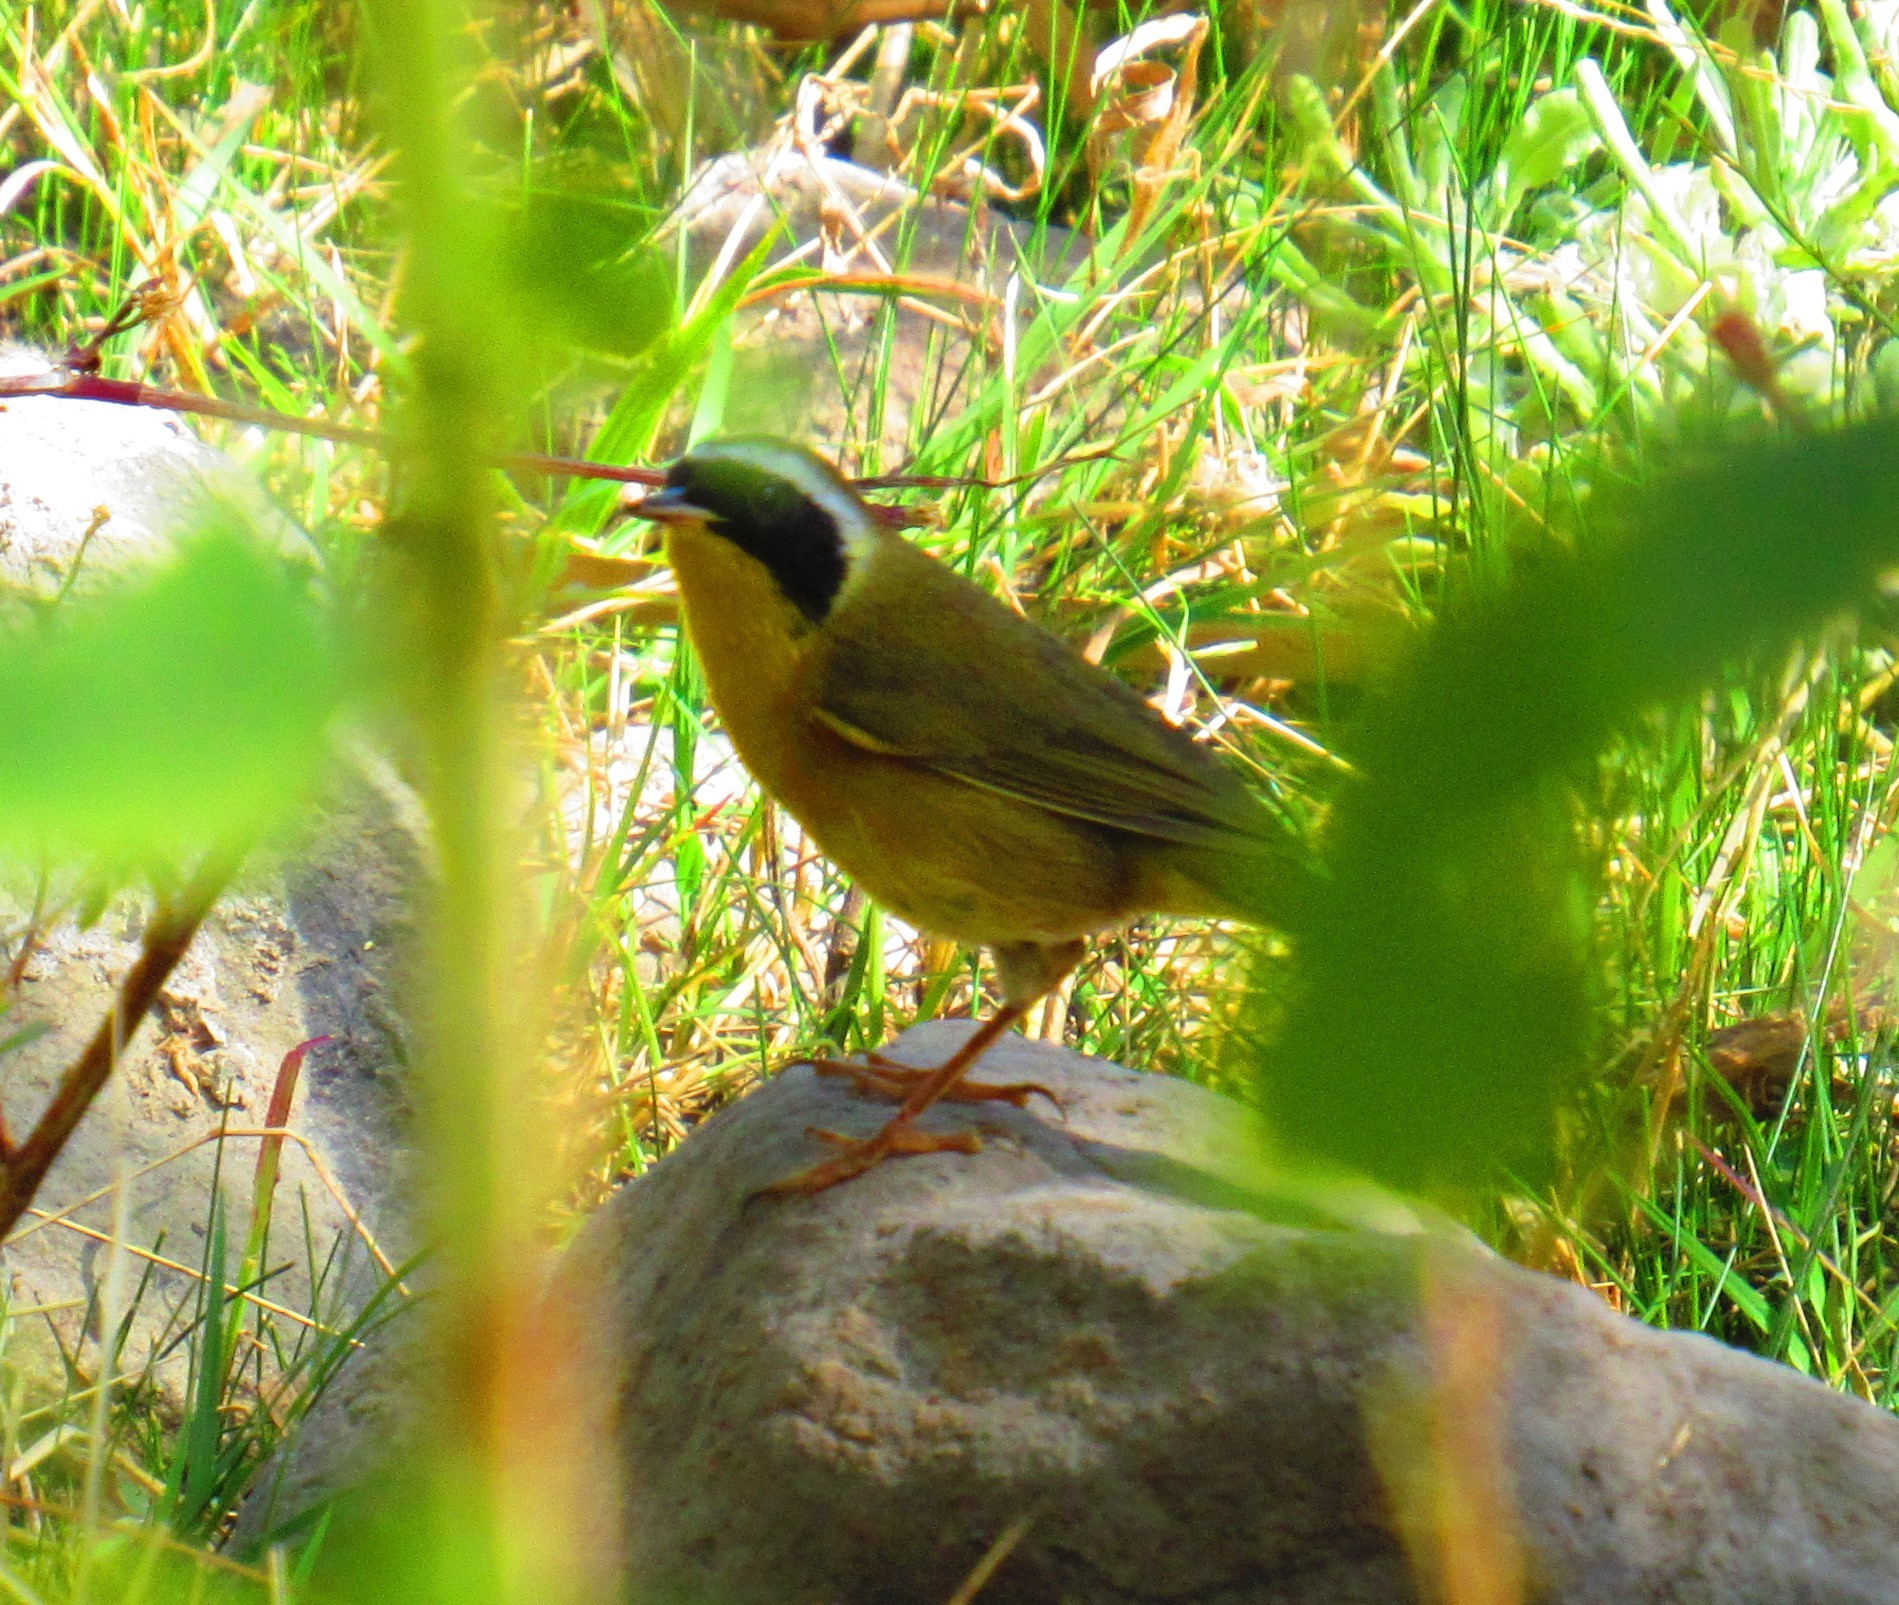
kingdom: Animalia
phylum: Chordata
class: Aves
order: Passeriformes
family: Parulidae
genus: Geothlypis
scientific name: Geothlypis trichas
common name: Common yellowthroat
